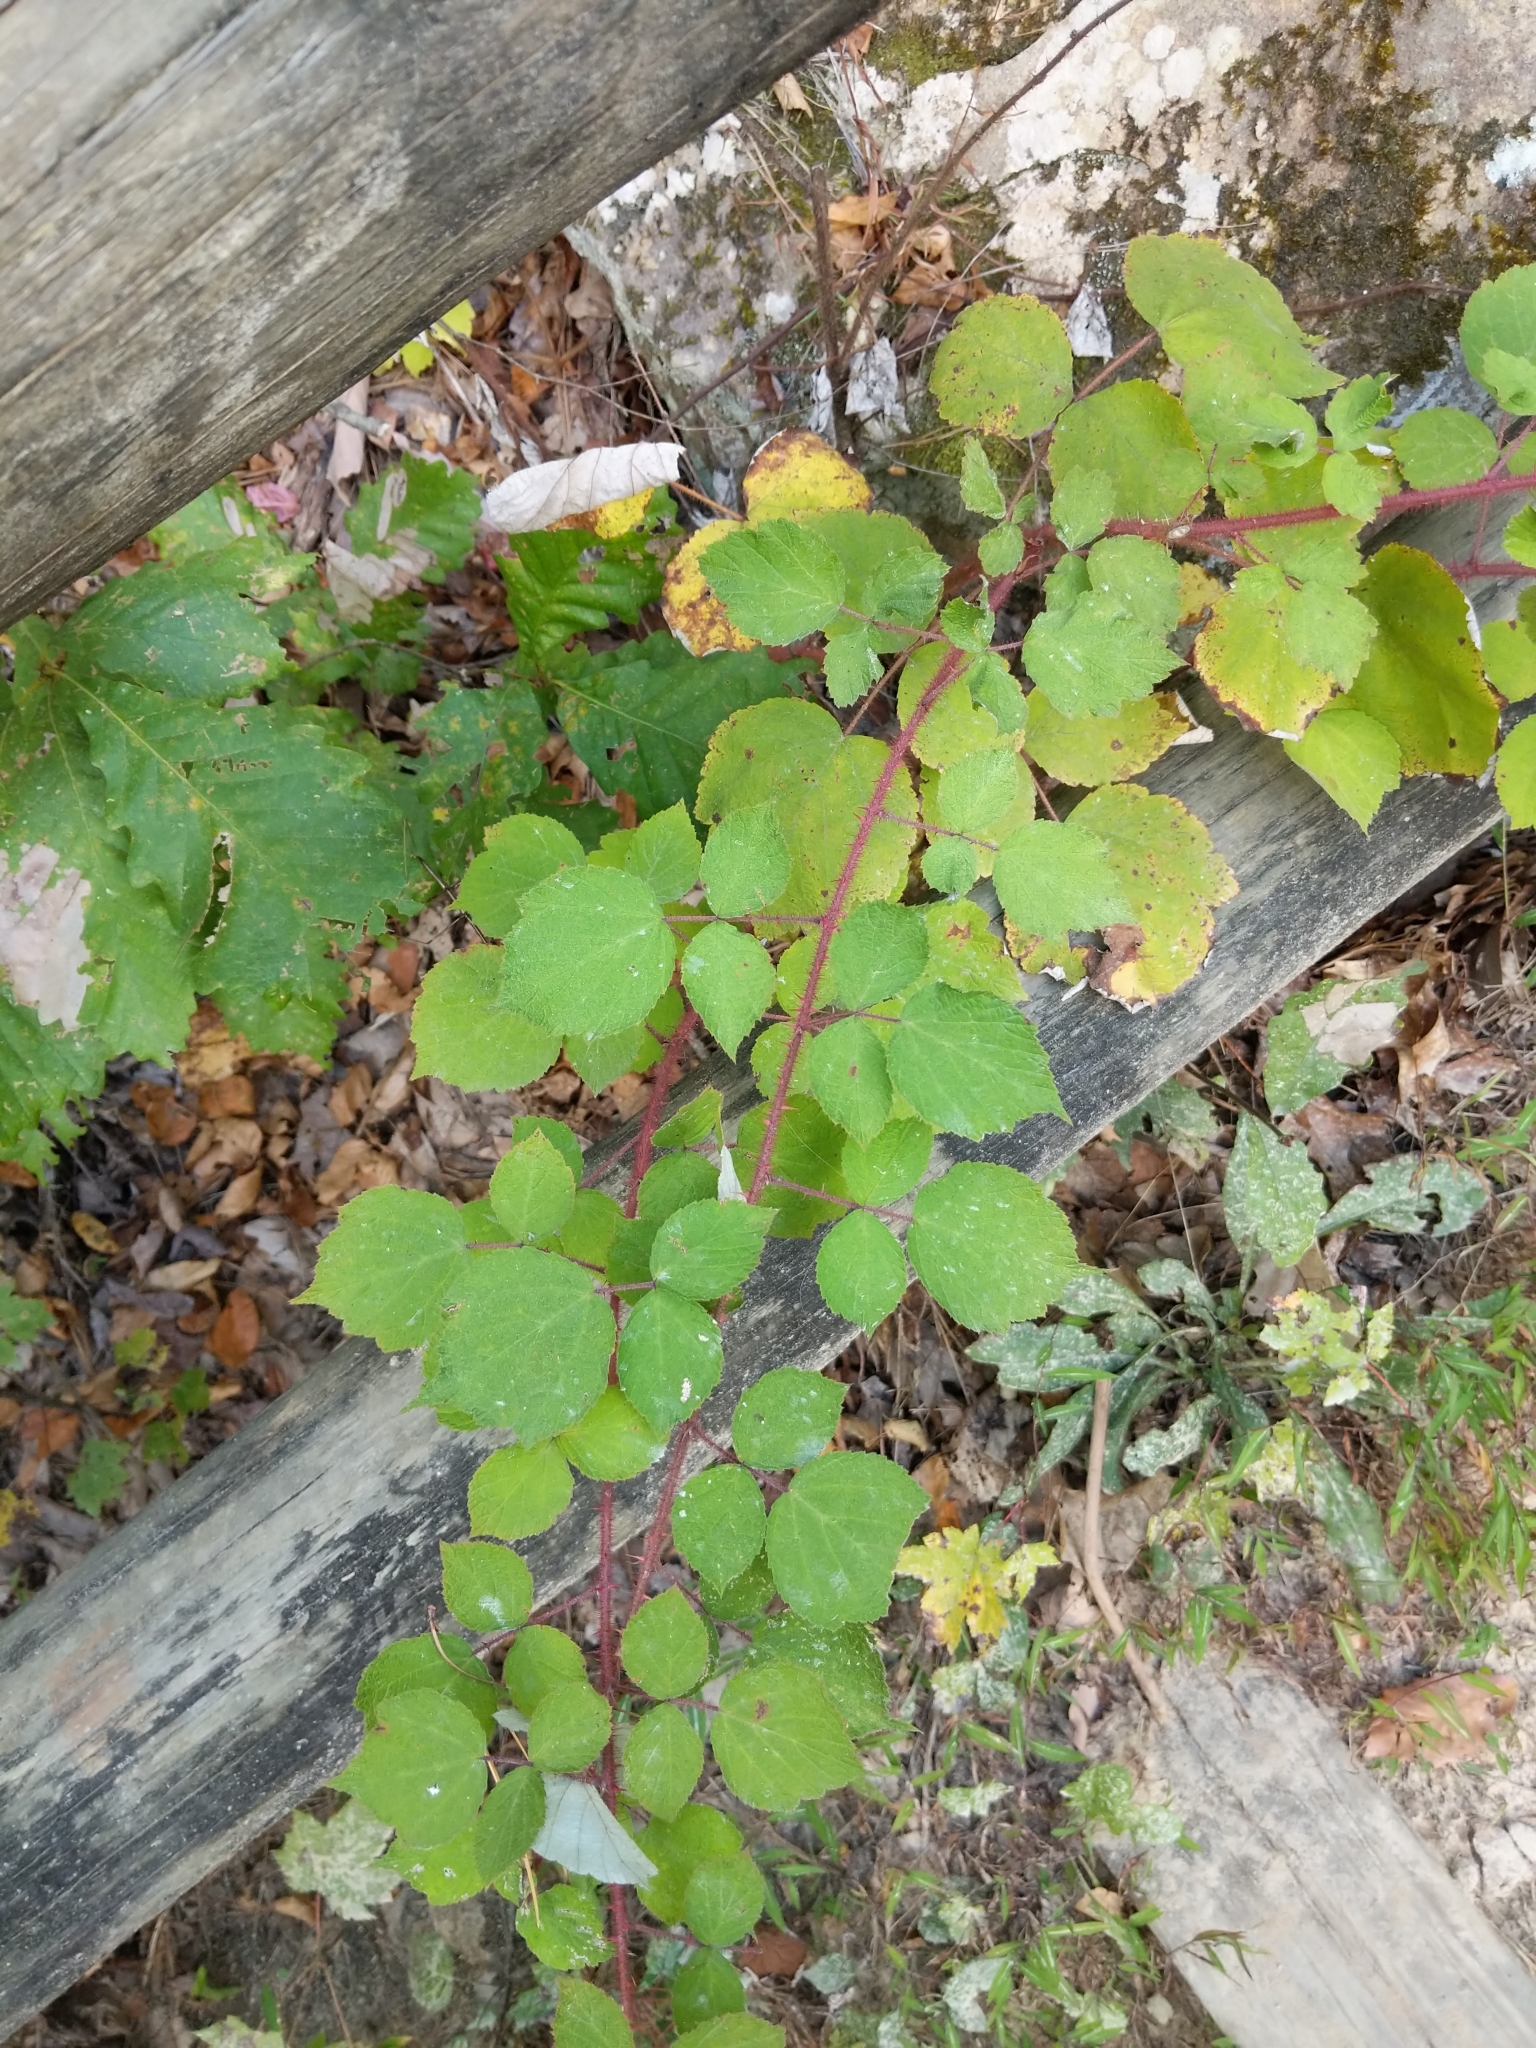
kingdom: Plantae
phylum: Tracheophyta
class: Magnoliopsida
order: Rosales
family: Rosaceae
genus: Rubus
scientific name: Rubus phoenicolasius
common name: Japanese wineberry
